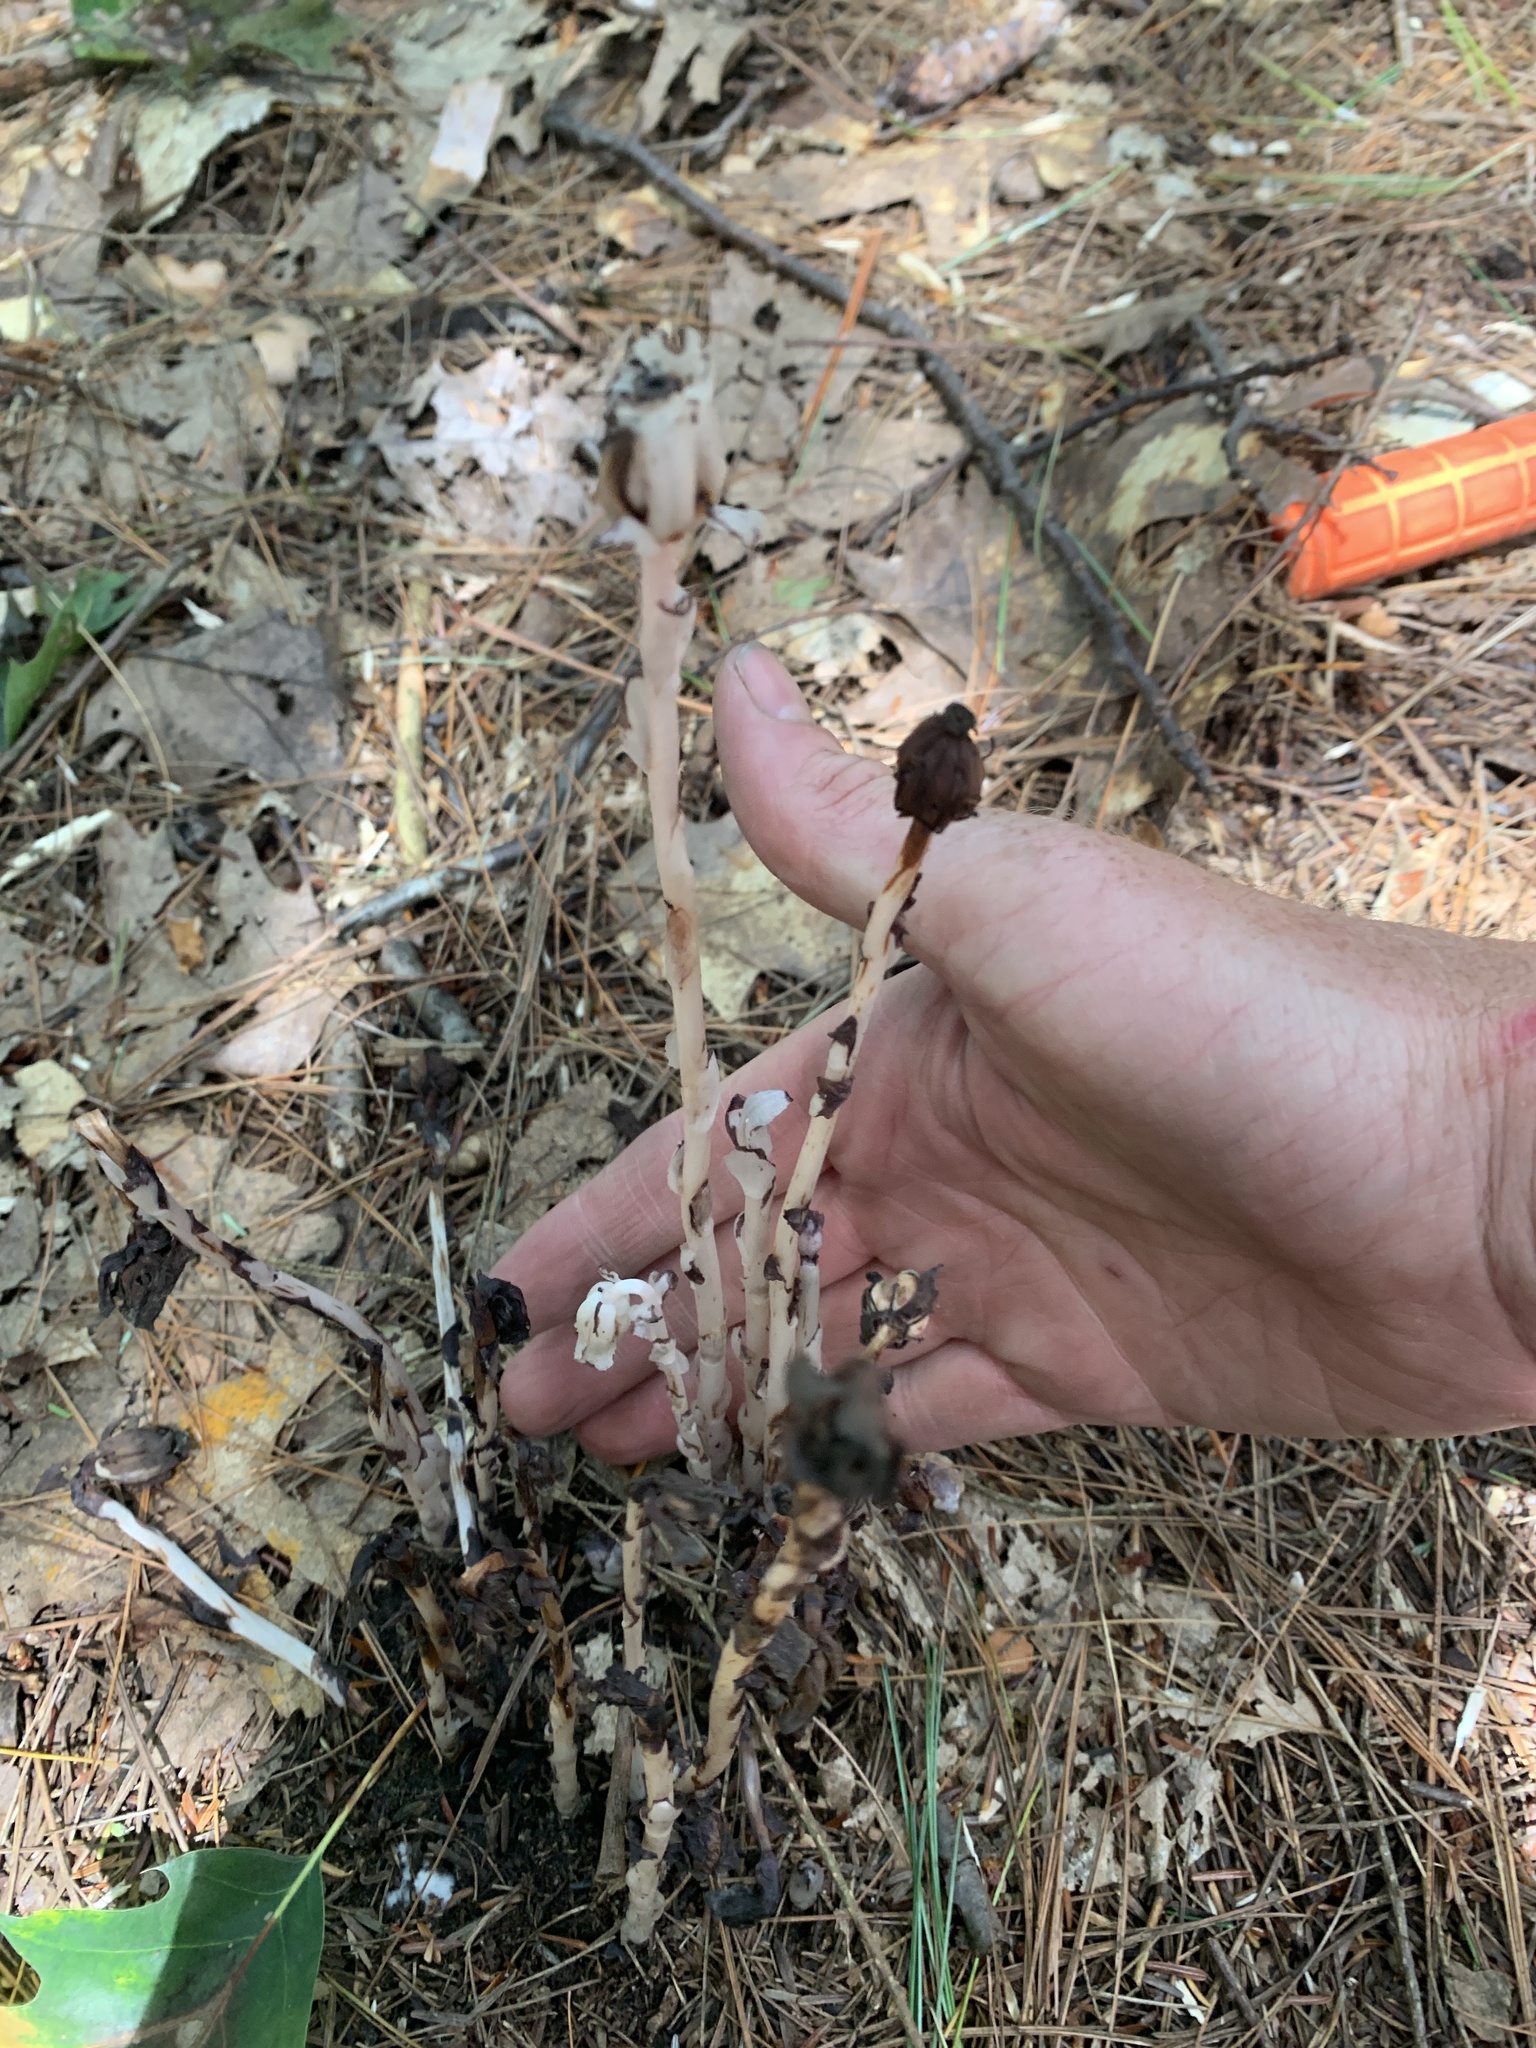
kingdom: Plantae
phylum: Tracheophyta
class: Magnoliopsida
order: Ericales
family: Ericaceae
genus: Monotropa
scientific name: Monotropa uniflora
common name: Convulsion root
